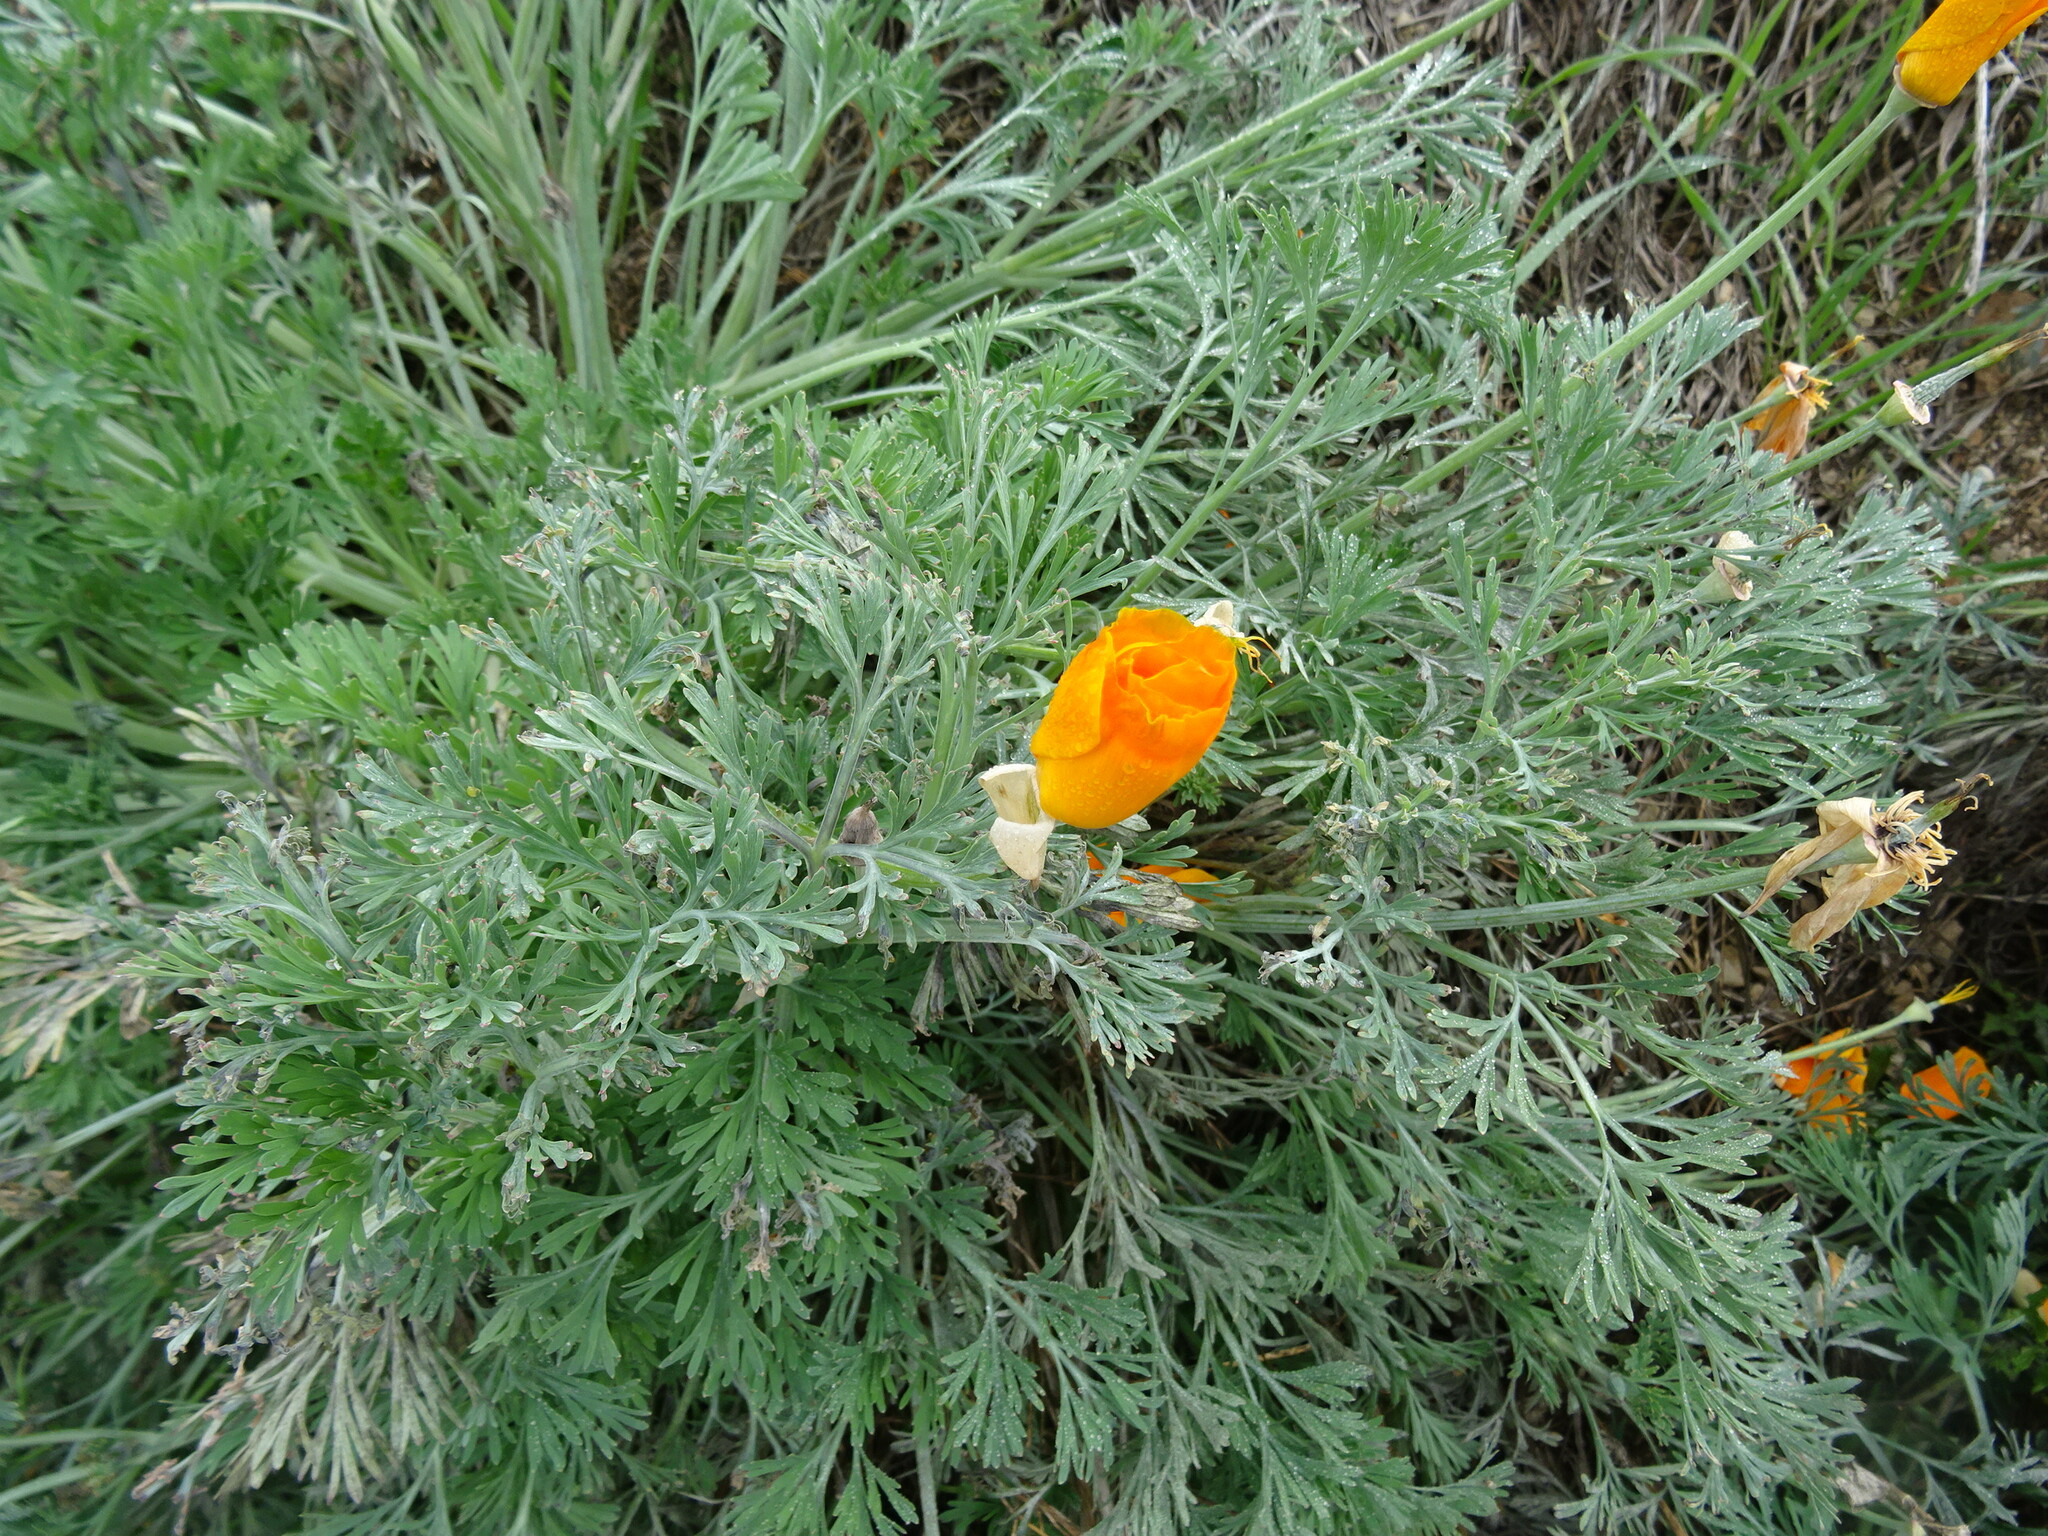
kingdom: Plantae
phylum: Tracheophyta
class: Magnoliopsida
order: Ranunculales
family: Papaveraceae
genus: Eschscholzia
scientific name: Eschscholzia californica
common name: California poppy
